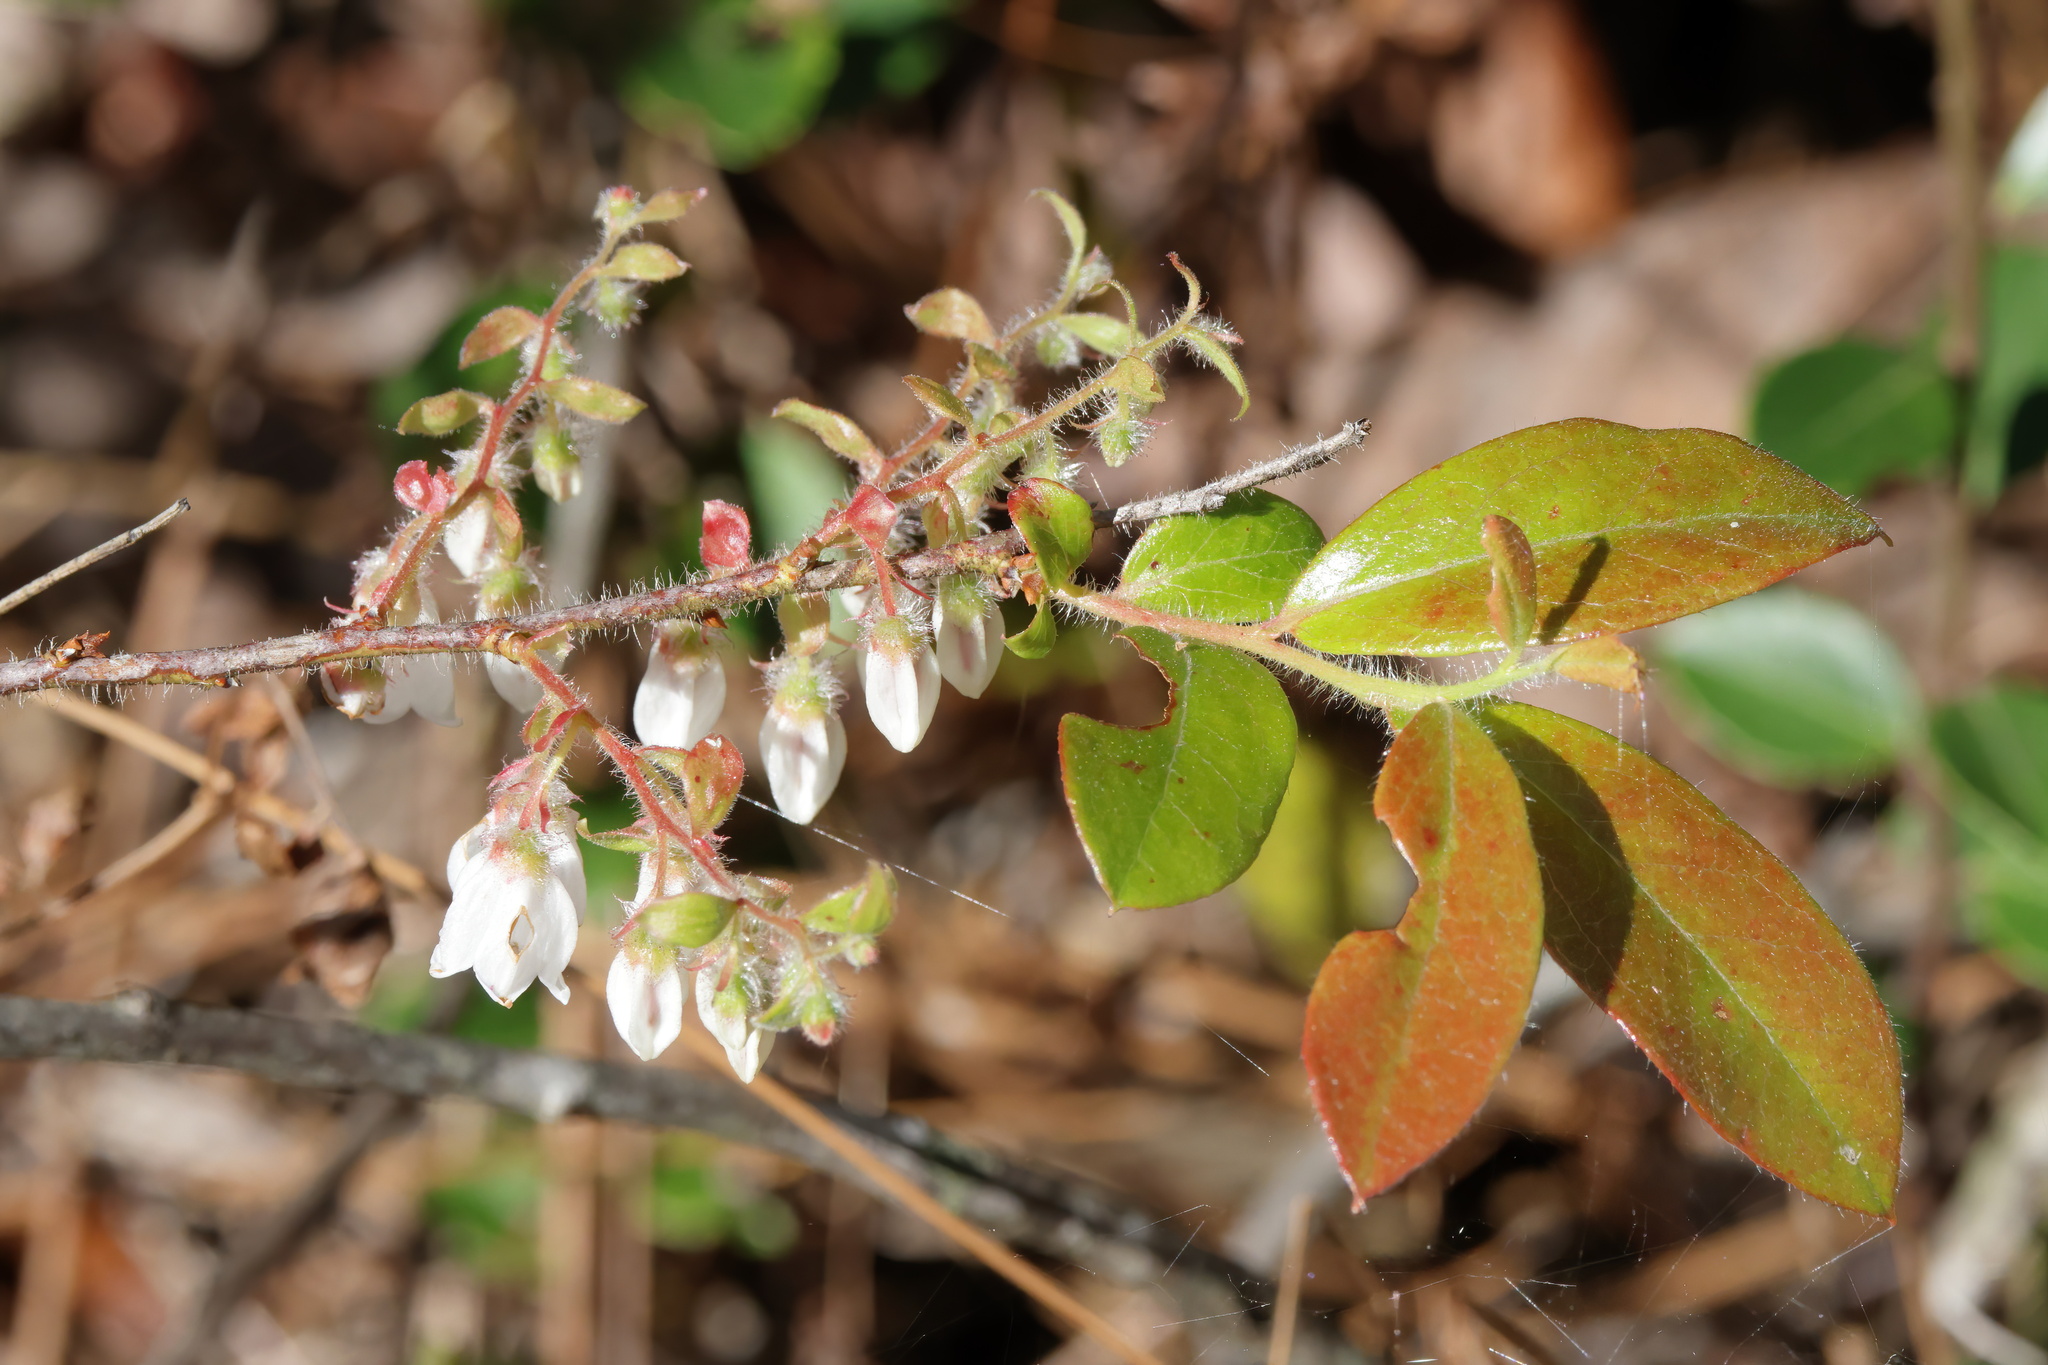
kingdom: Plantae
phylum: Tracheophyta
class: Magnoliopsida
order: Ericales
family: Ericaceae
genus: Gaylussacia
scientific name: Gaylussacia mosieri
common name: Hirsute huckleberry
